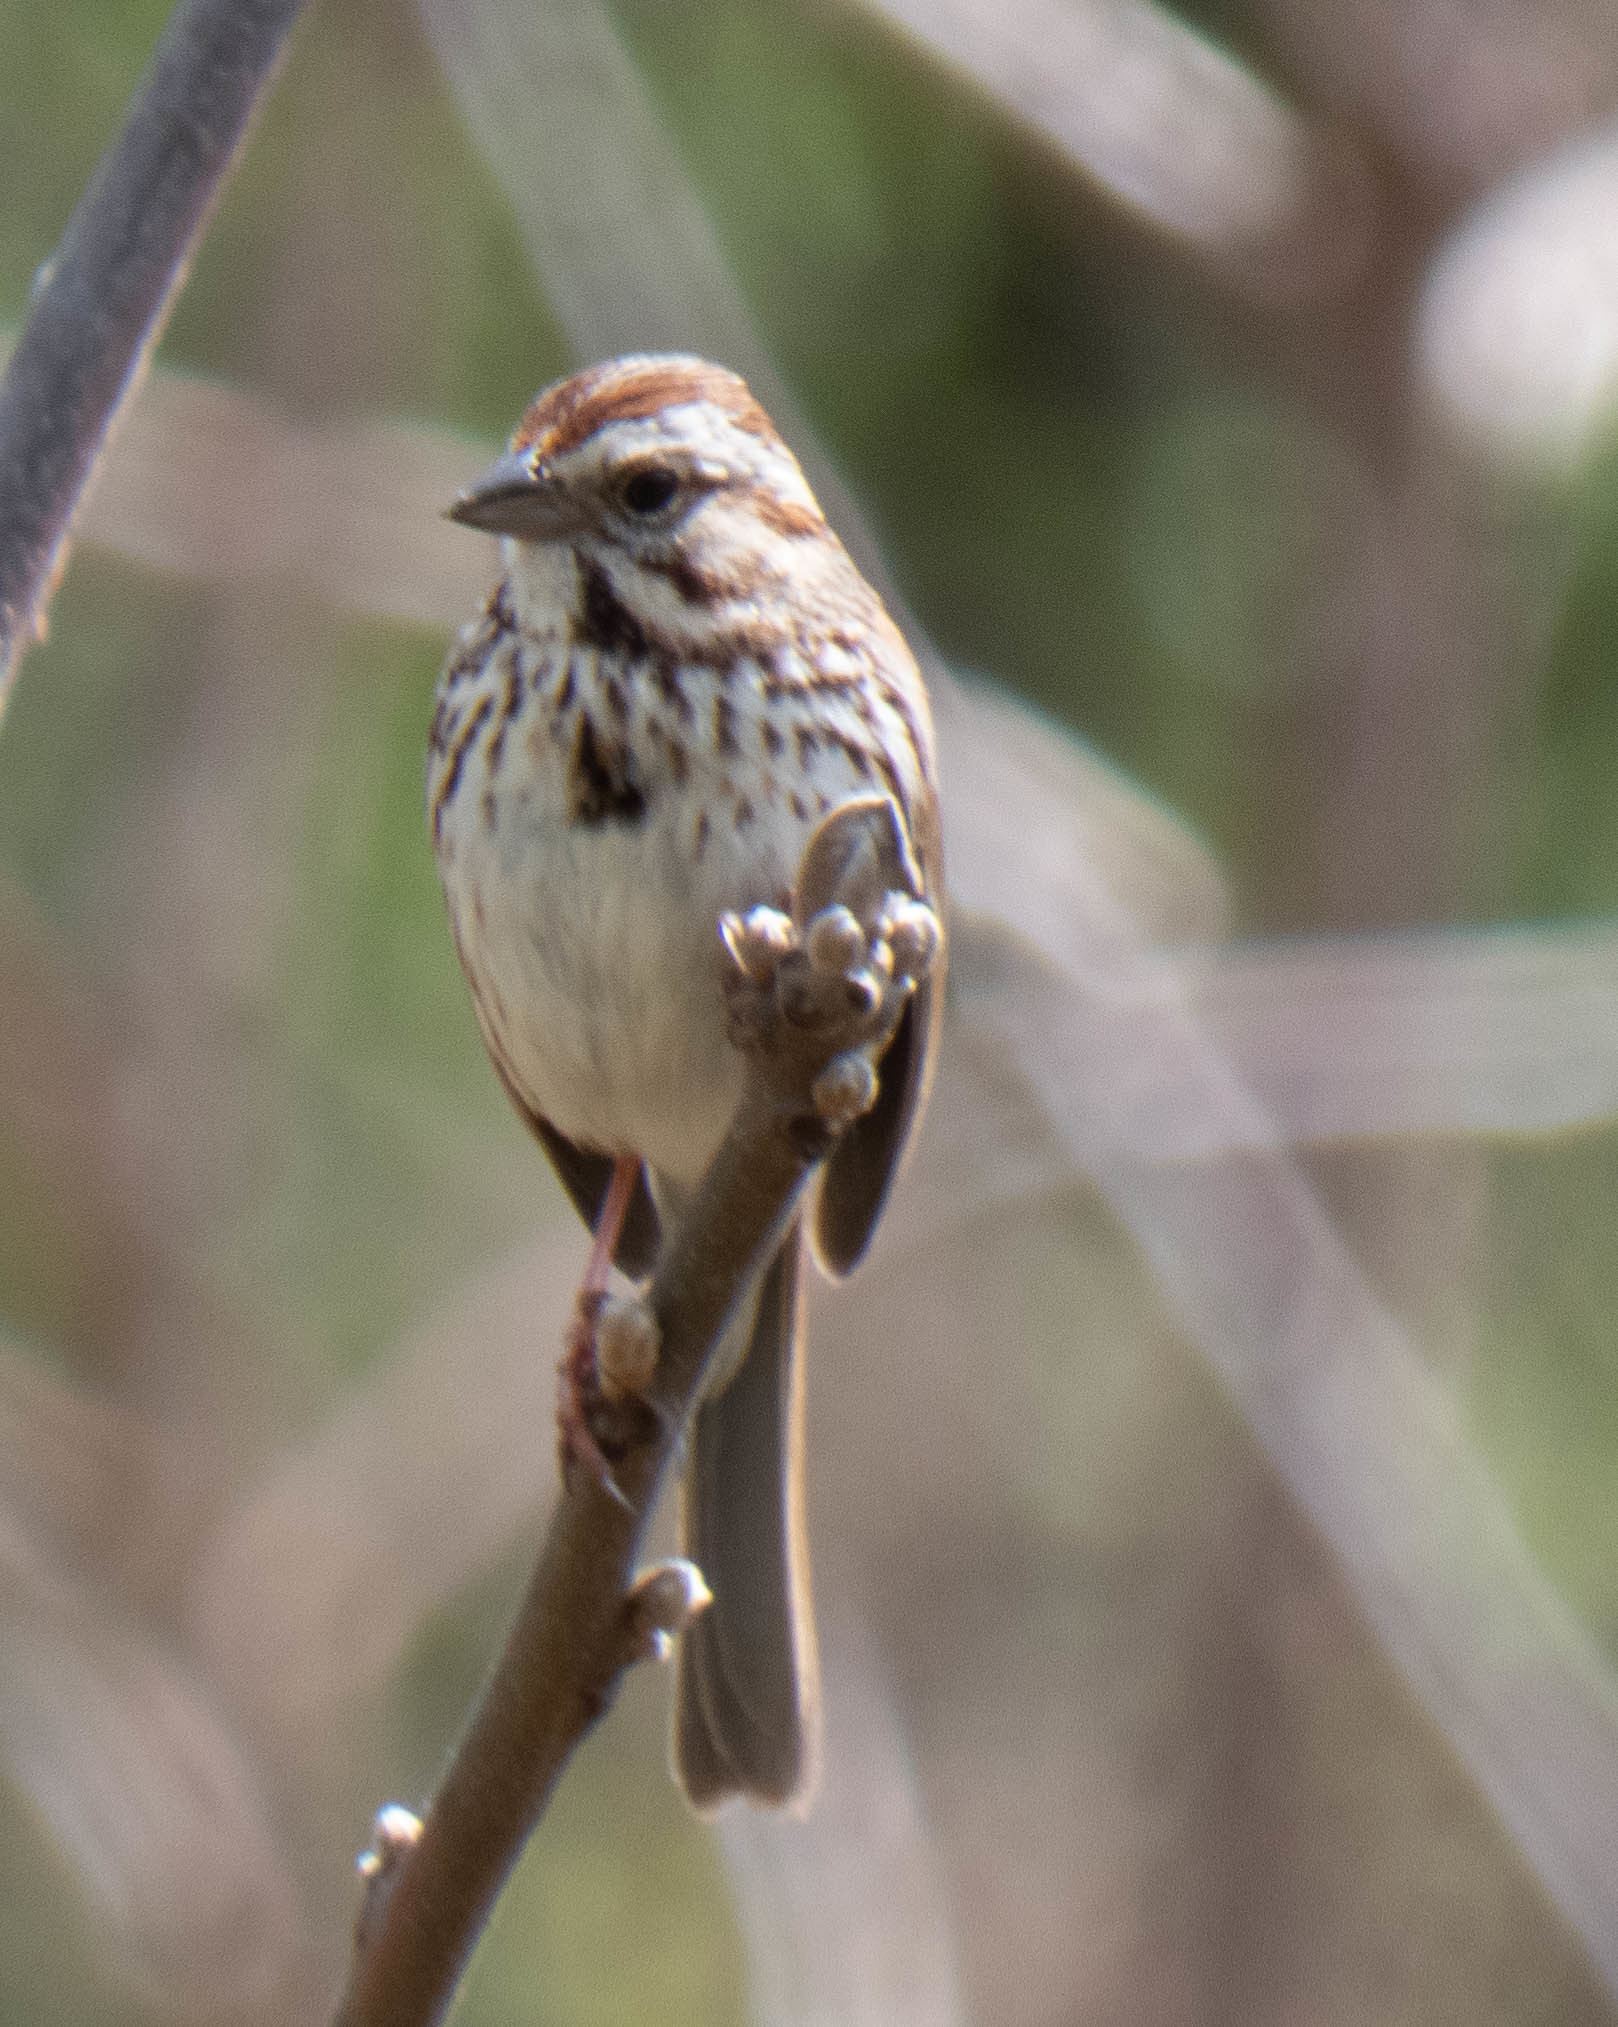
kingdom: Animalia
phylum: Chordata
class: Aves
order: Passeriformes
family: Passerellidae
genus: Melospiza
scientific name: Melospiza melodia
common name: Song sparrow
